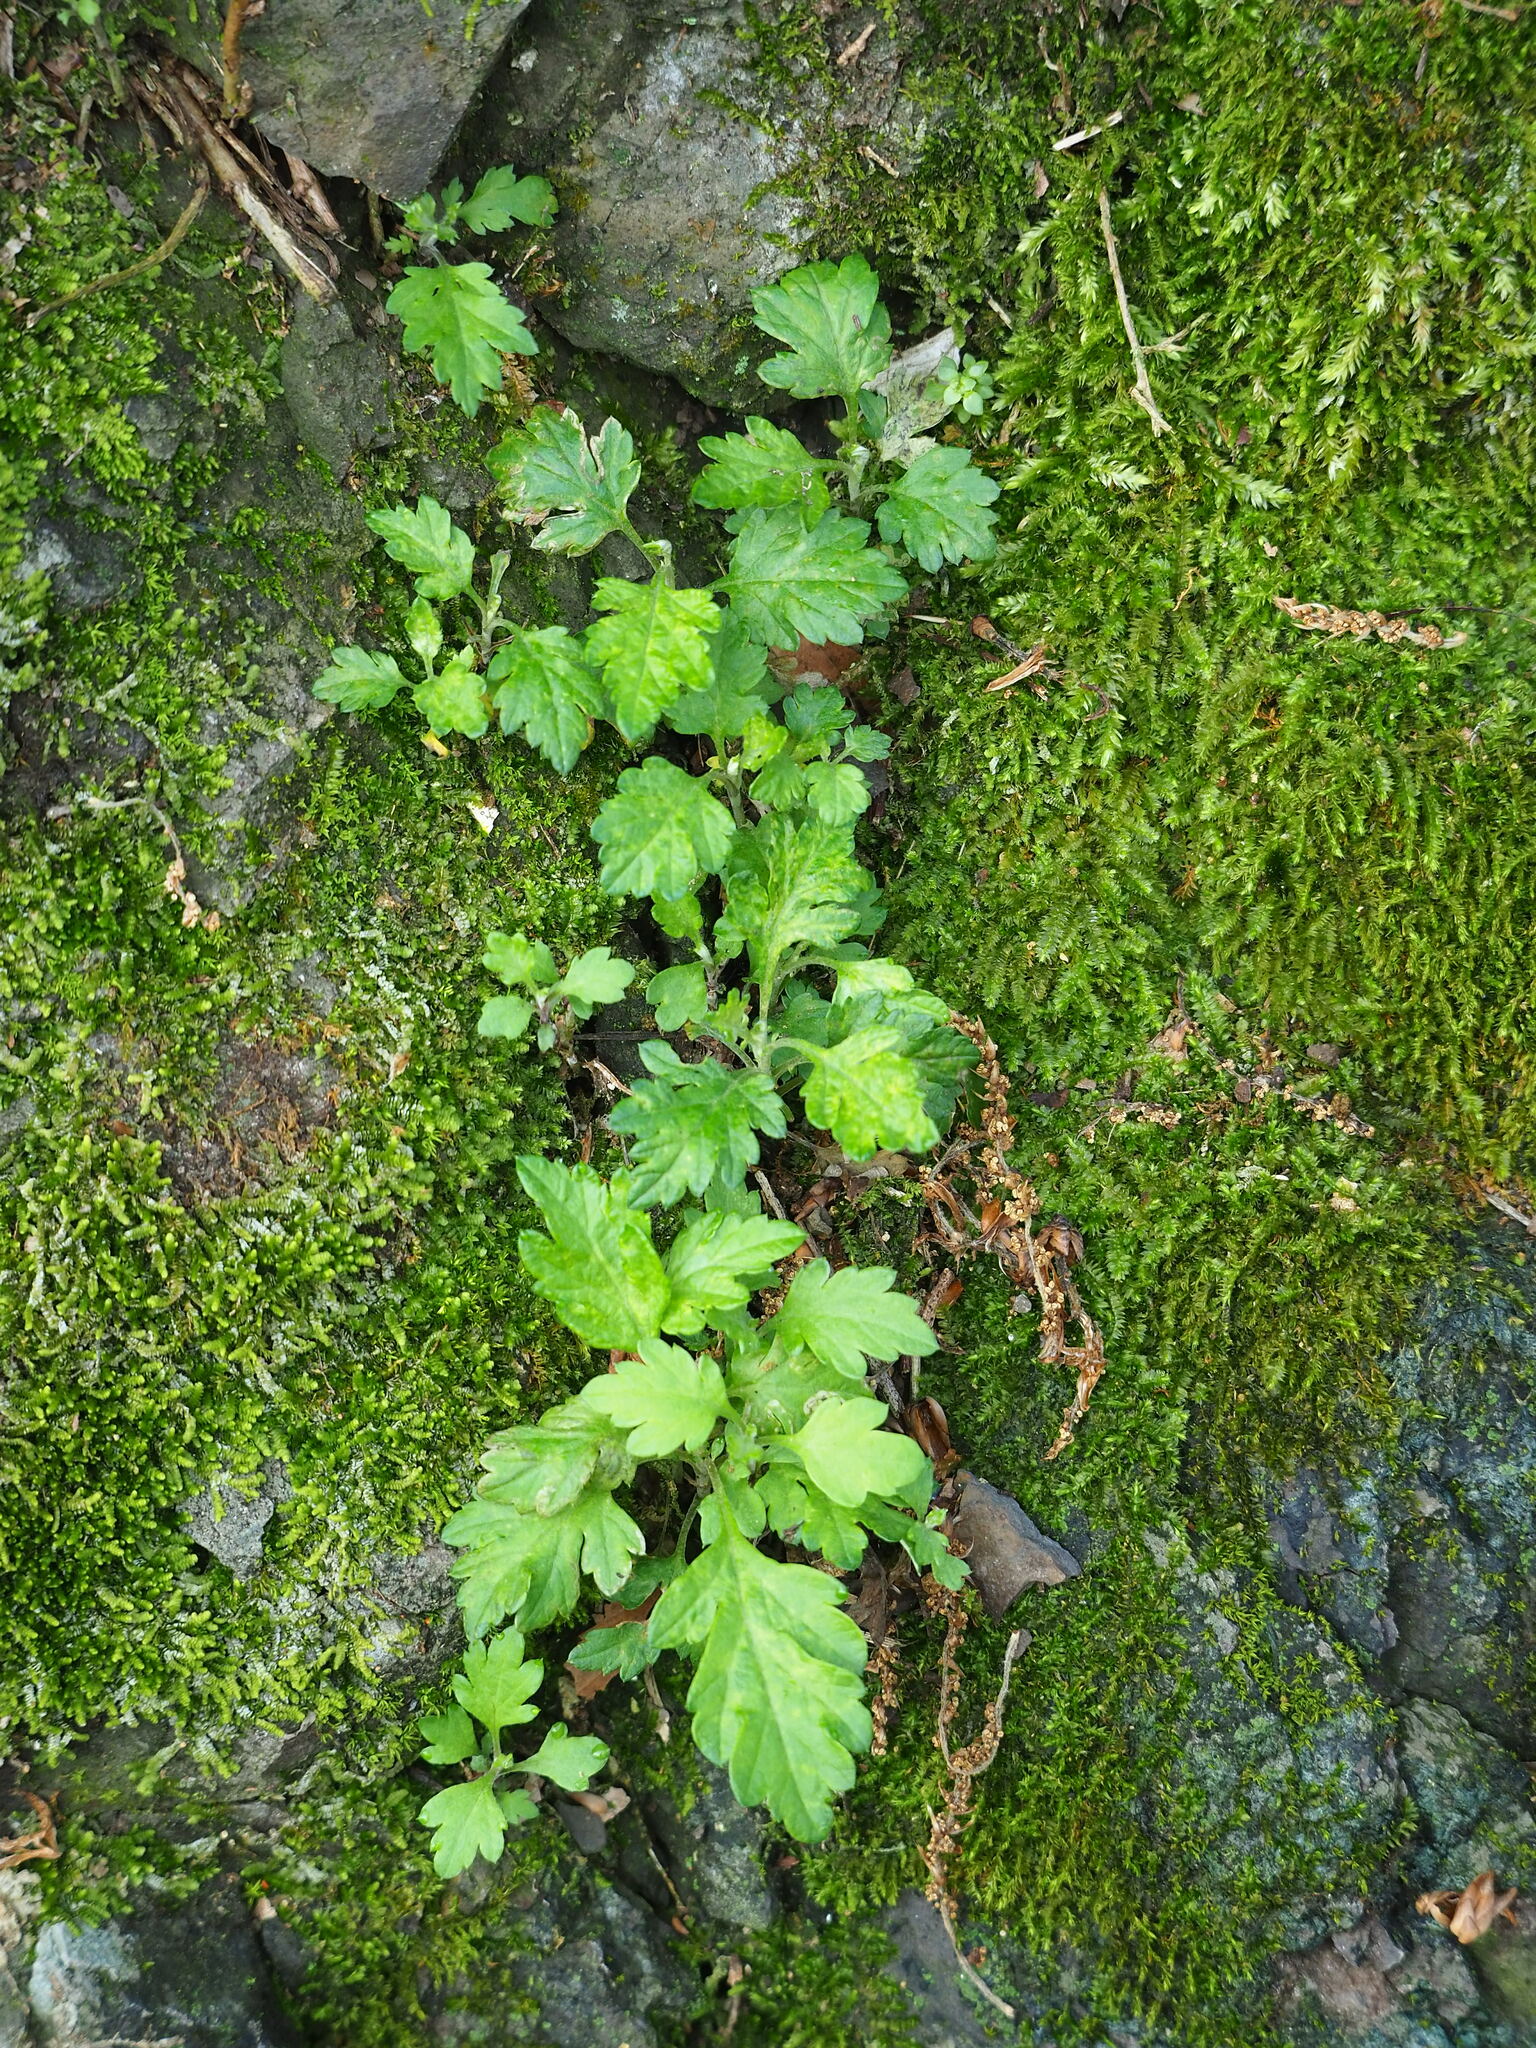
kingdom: Plantae
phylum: Tracheophyta
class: Magnoliopsida
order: Asterales
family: Asteraceae
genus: Artemisia
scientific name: Artemisia indica
